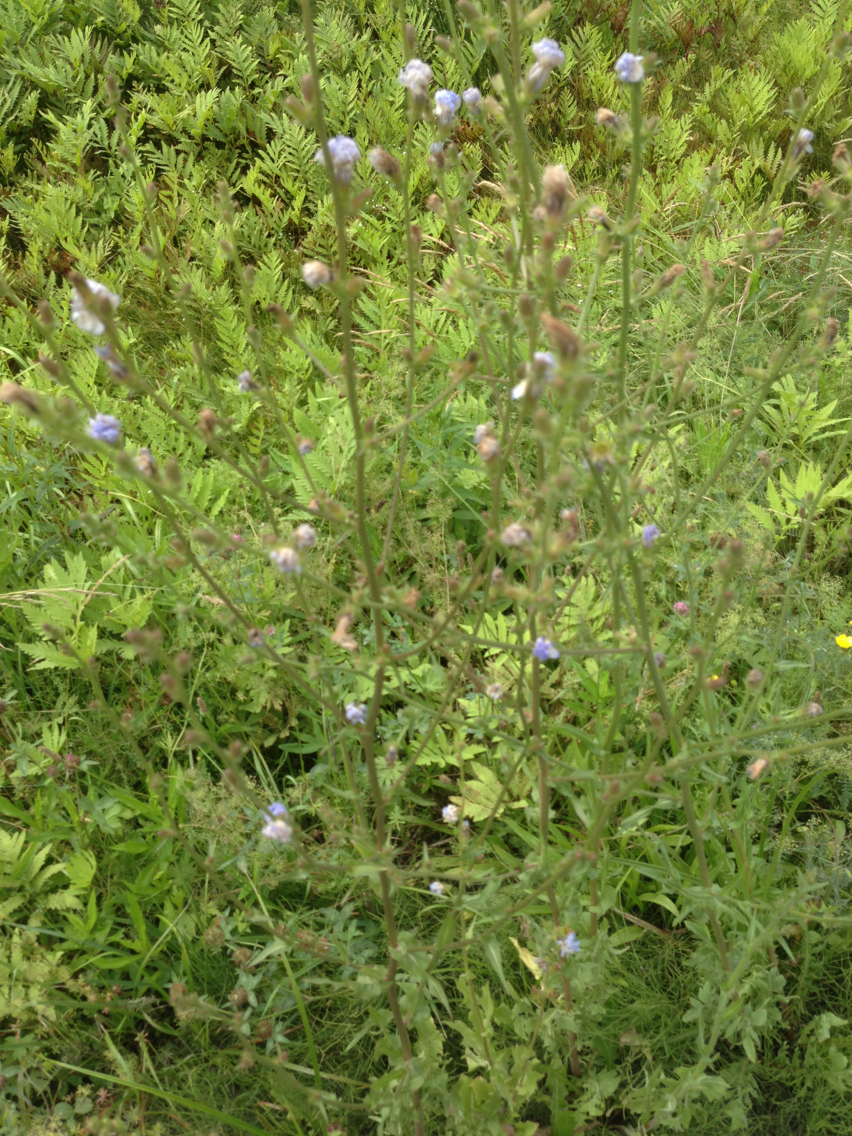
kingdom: Plantae
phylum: Tracheophyta
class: Magnoliopsida
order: Asterales
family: Asteraceae
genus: Cichorium
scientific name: Cichorium intybus
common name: Chicory
